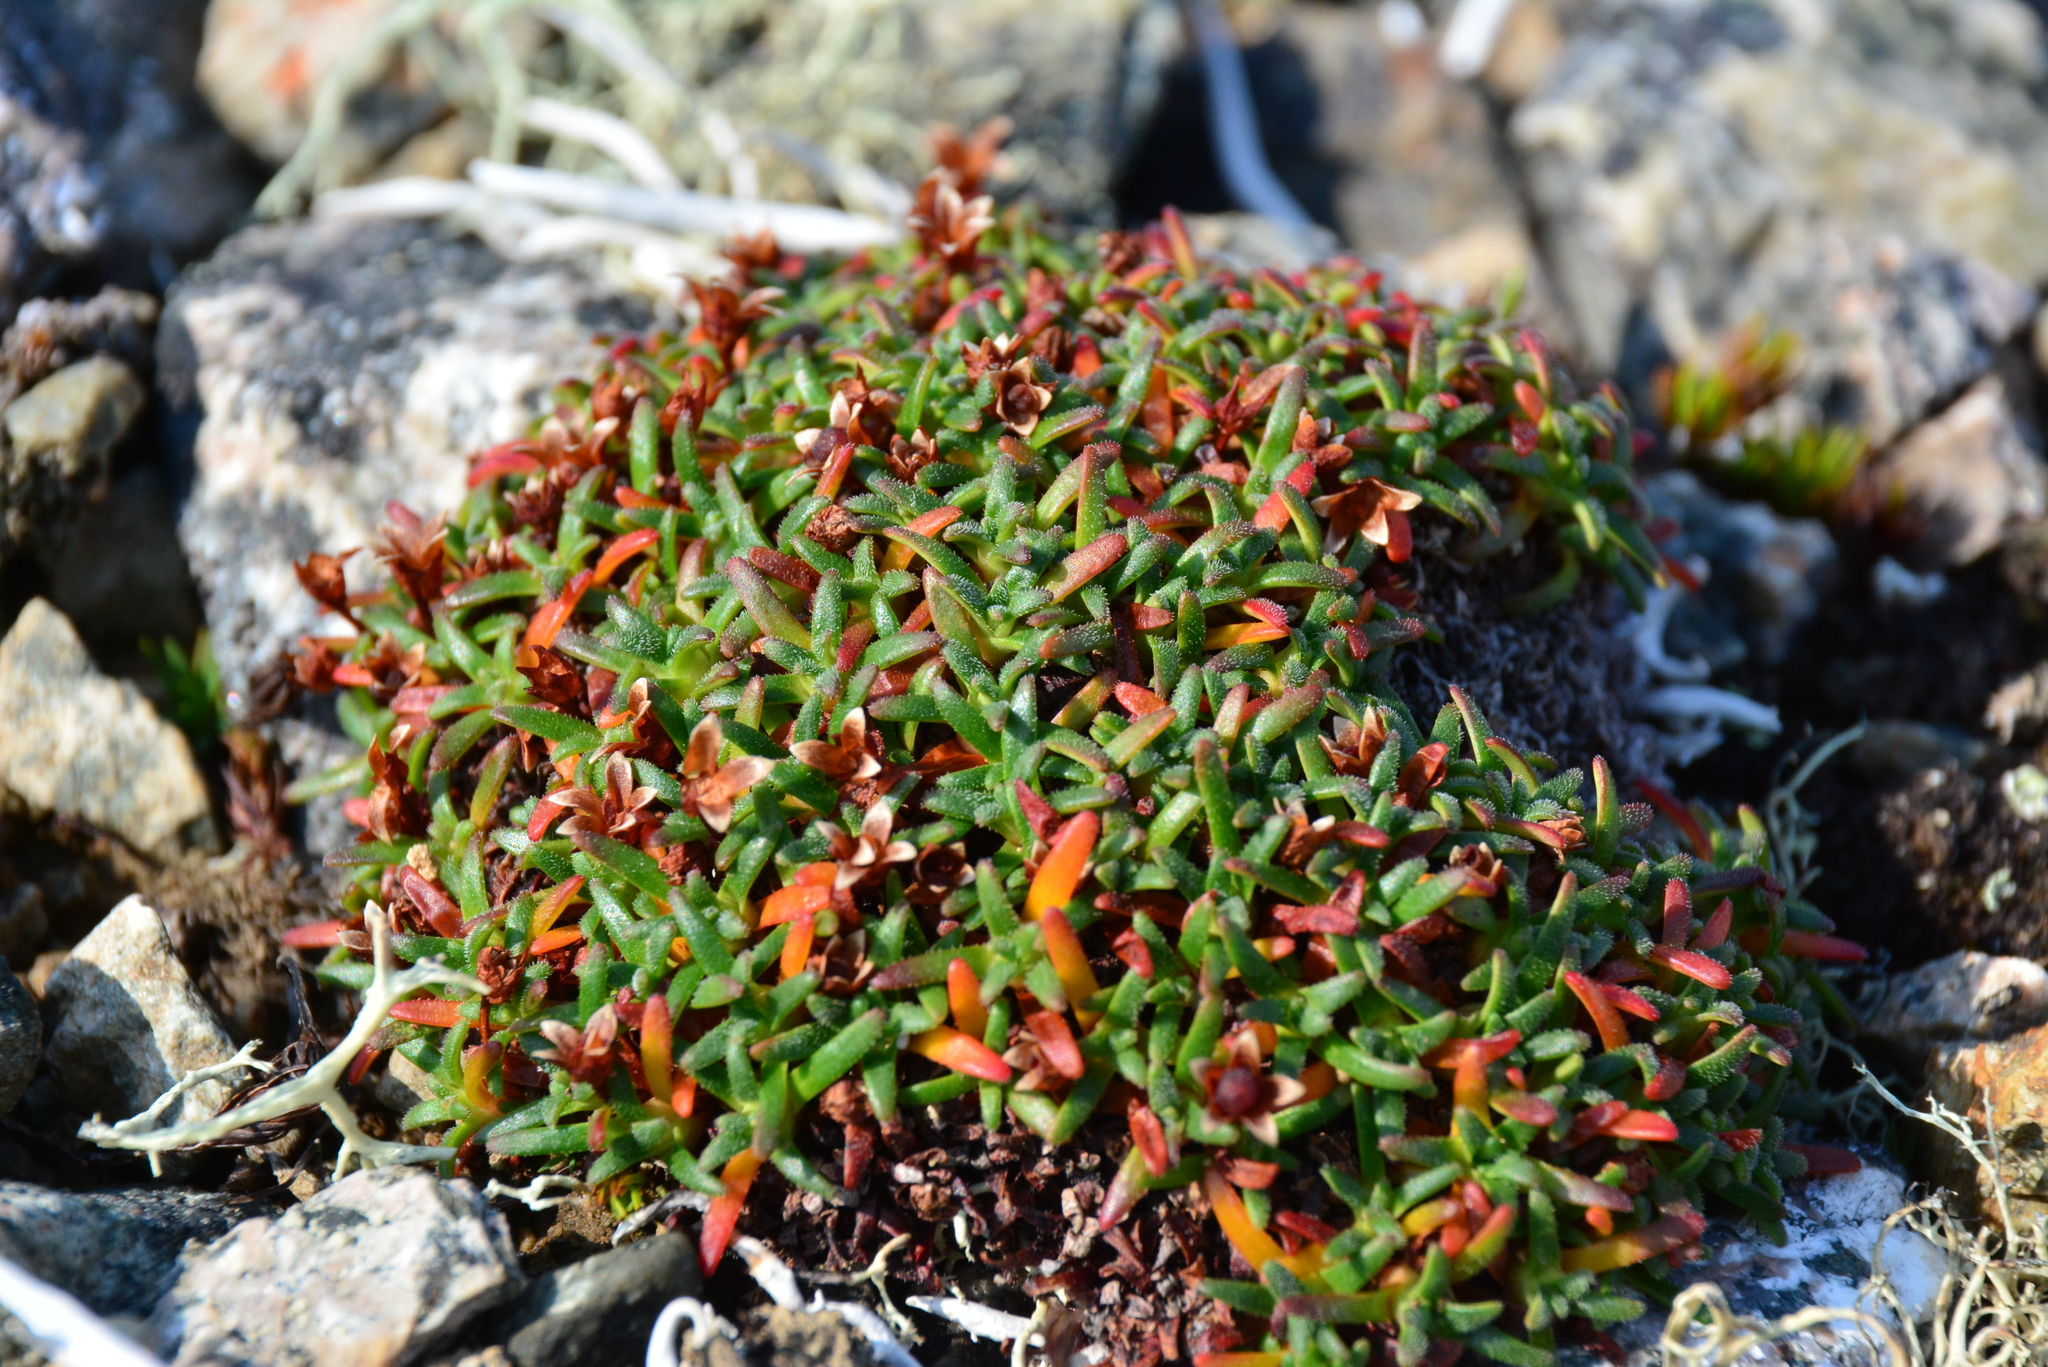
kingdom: Plantae
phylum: Tracheophyta
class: Magnoliopsida
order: Ericales
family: Primulaceae
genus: Androsace
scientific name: Androsace ochotensis
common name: Alaska dwarf-primrose
